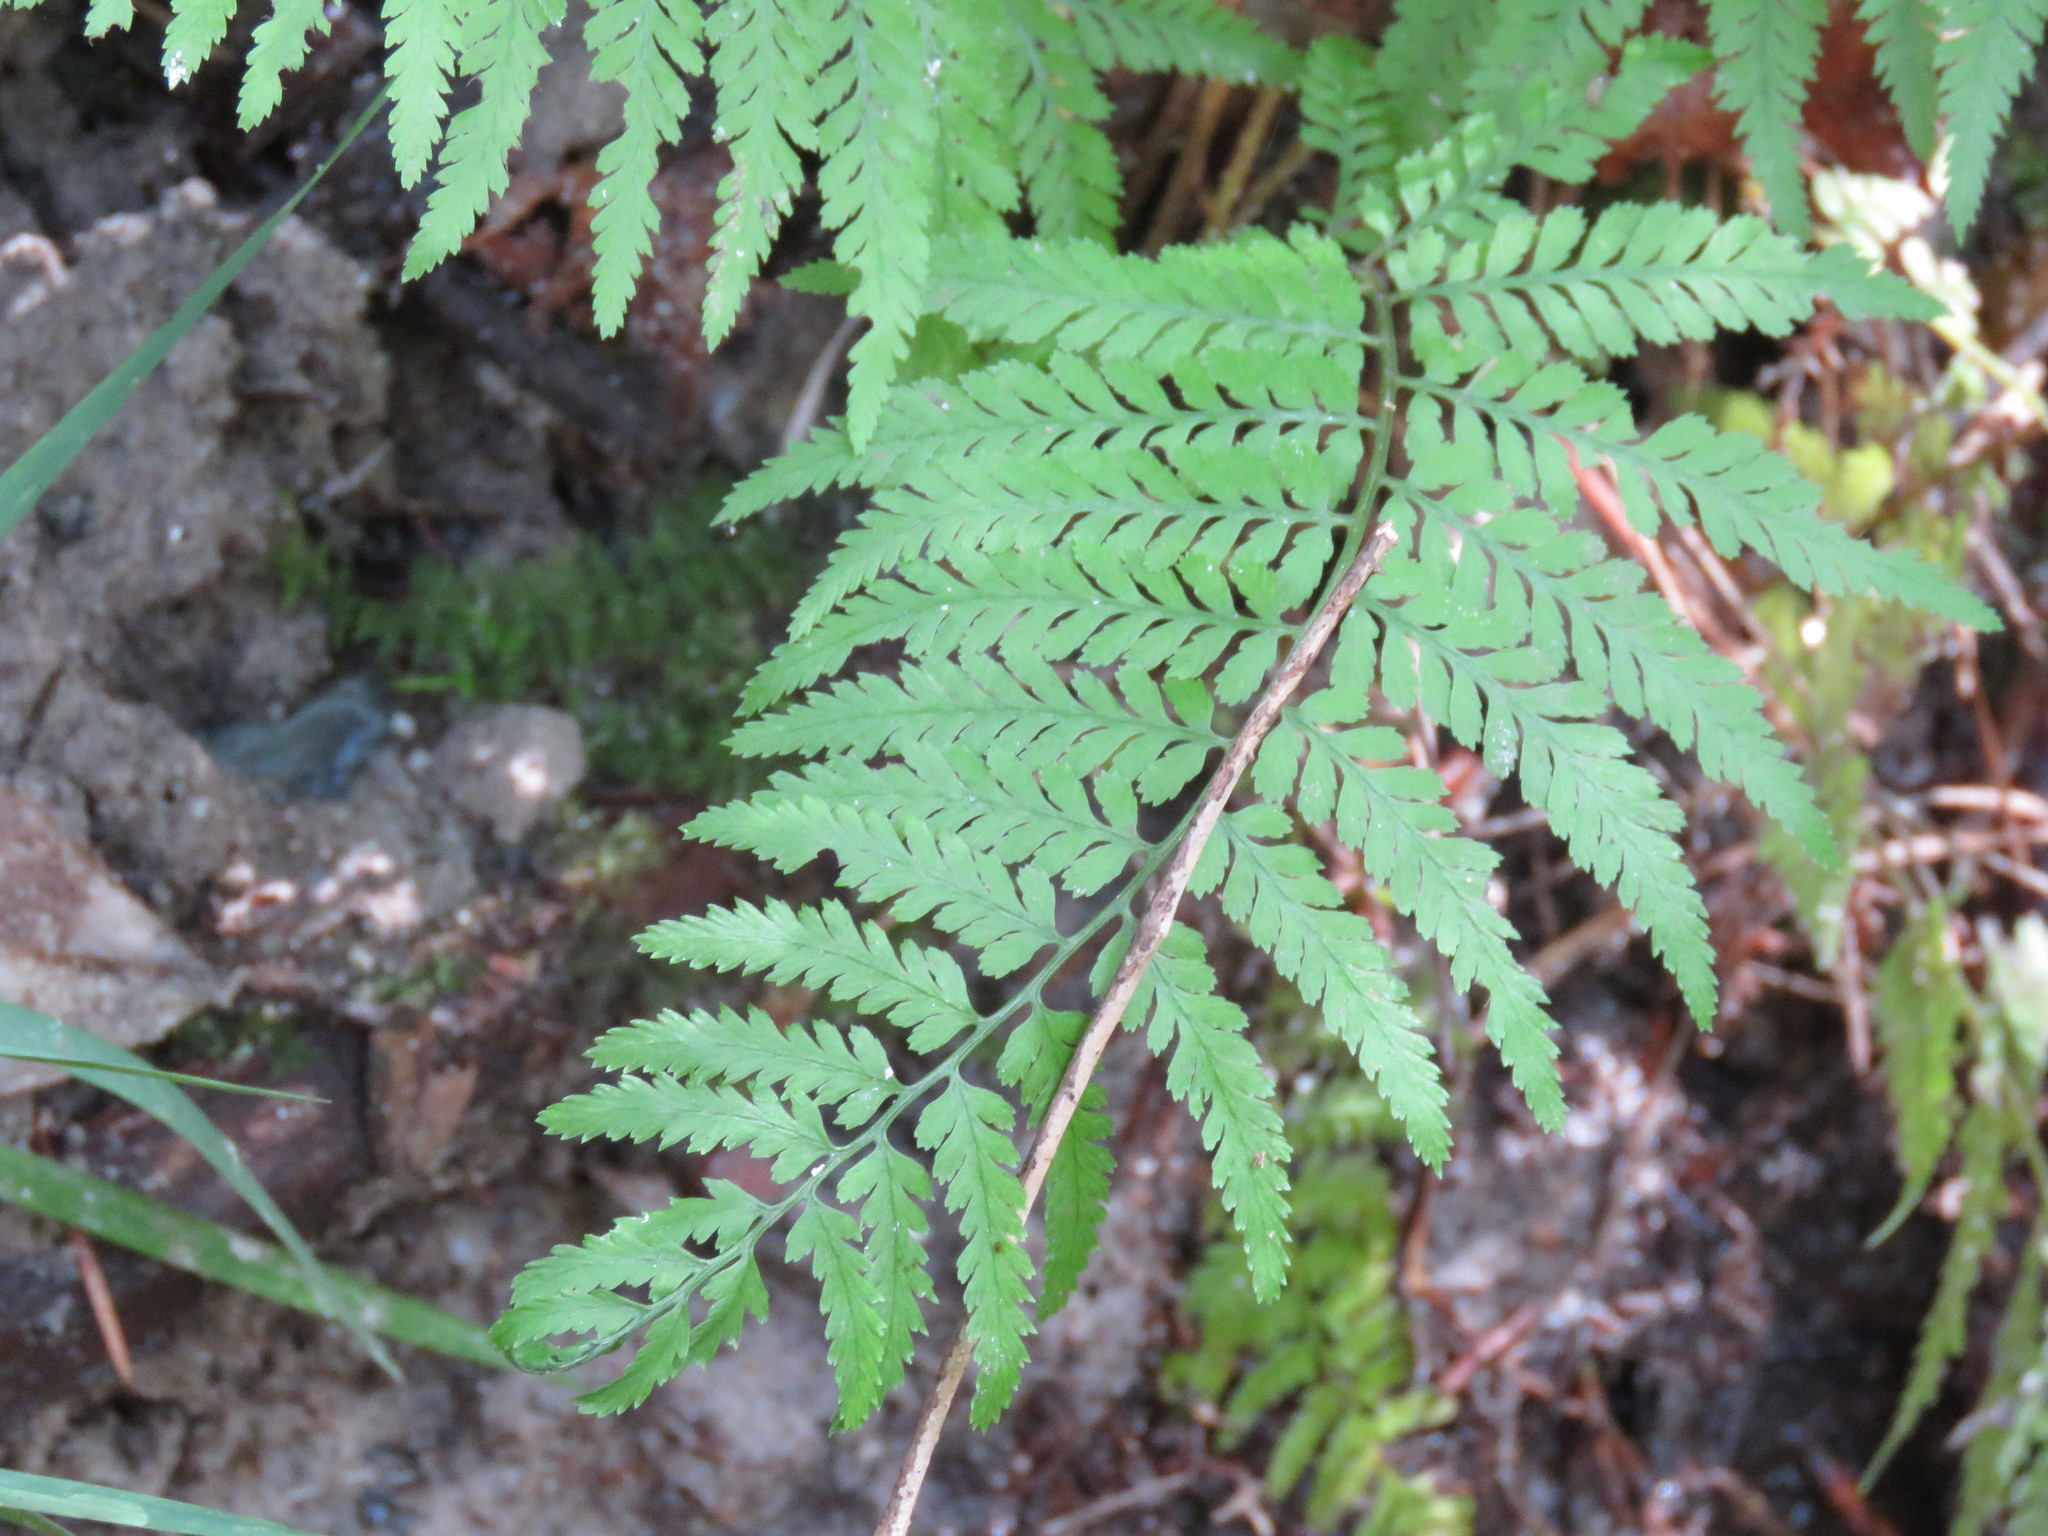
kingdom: Plantae
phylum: Tracheophyta
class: Polypodiopsida
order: Polypodiales
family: Athyriaceae
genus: Athyrium
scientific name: Athyrium asplenioides
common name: Southern lady fern
